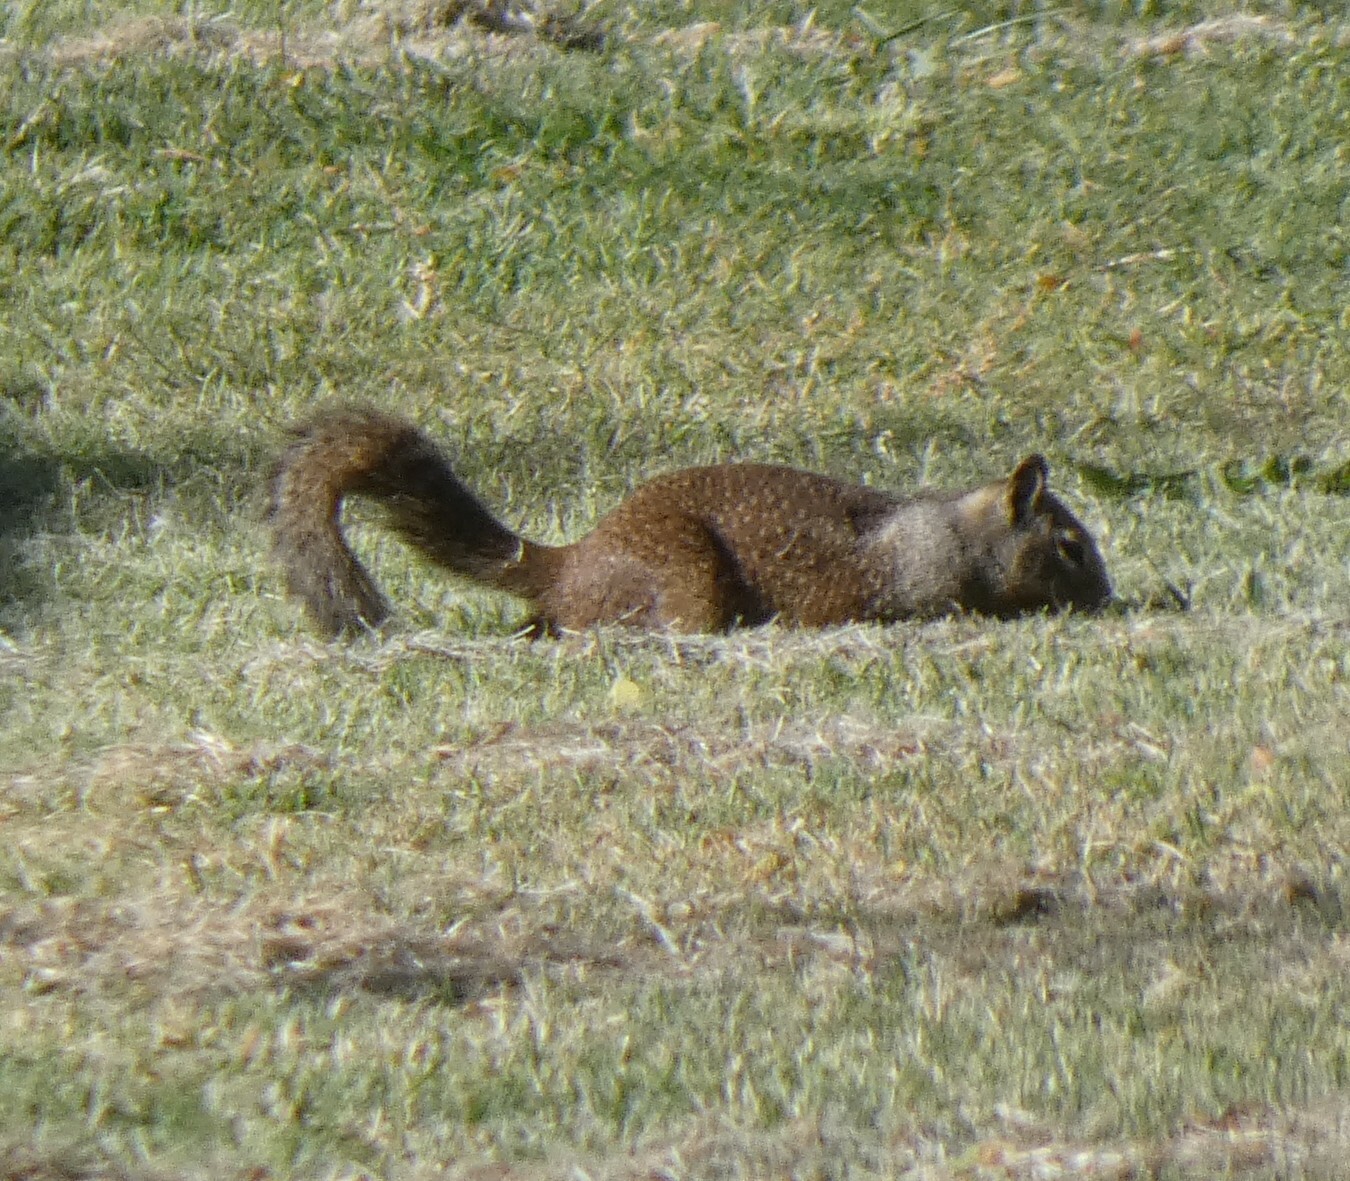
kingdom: Animalia
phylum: Chordata
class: Mammalia
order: Rodentia
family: Sciuridae
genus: Otospermophilus
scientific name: Otospermophilus beecheyi
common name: California ground squirrel
